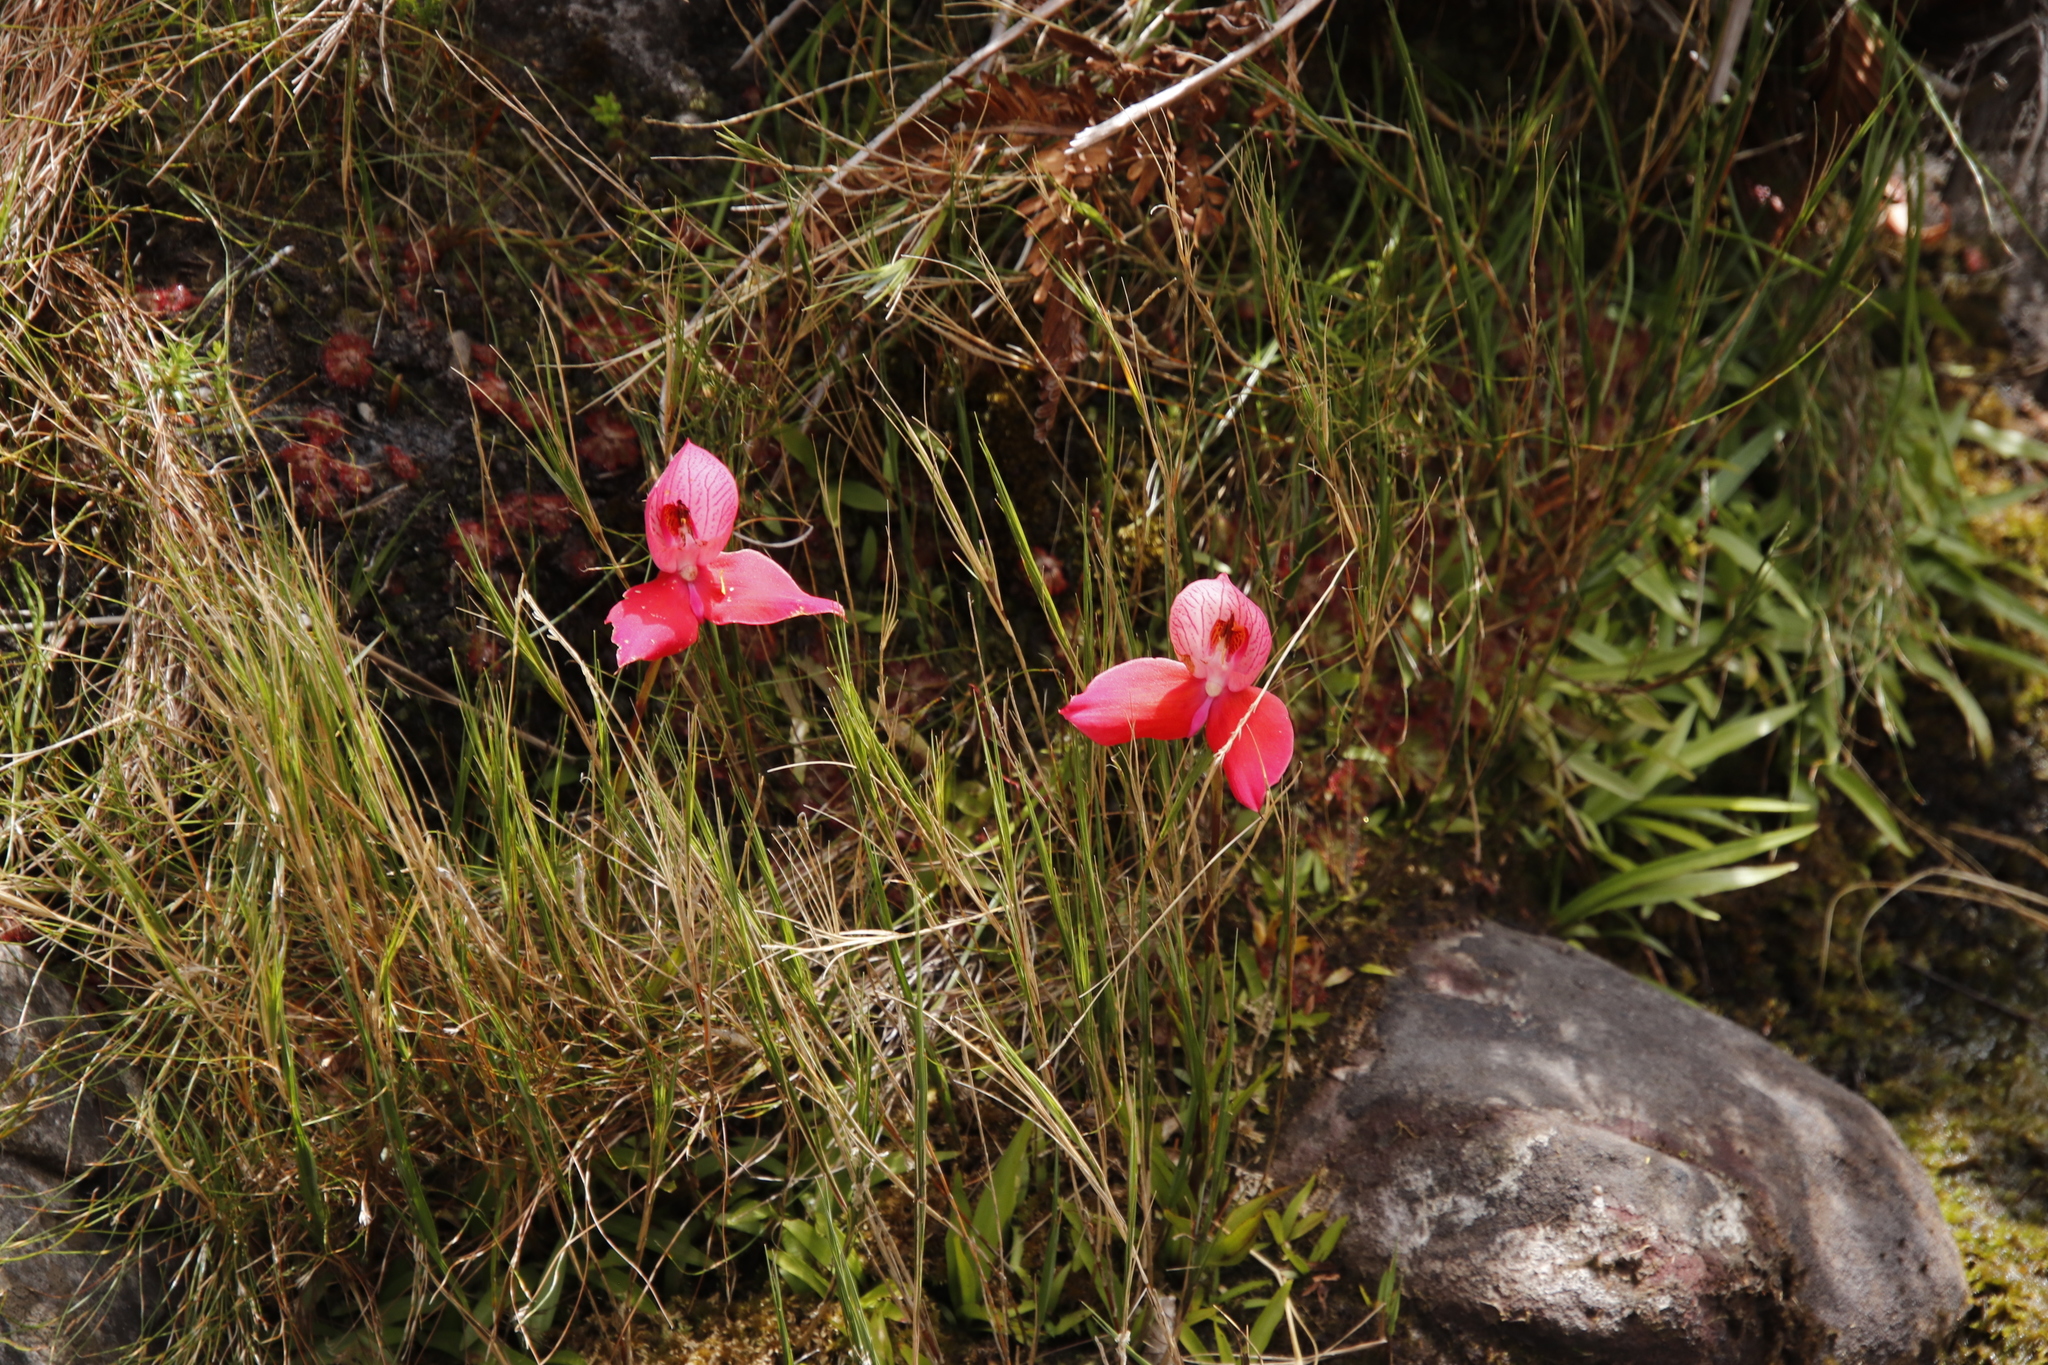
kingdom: Plantae
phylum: Tracheophyta
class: Liliopsida
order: Asparagales
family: Orchidaceae
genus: Disa
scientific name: Disa uniflora
